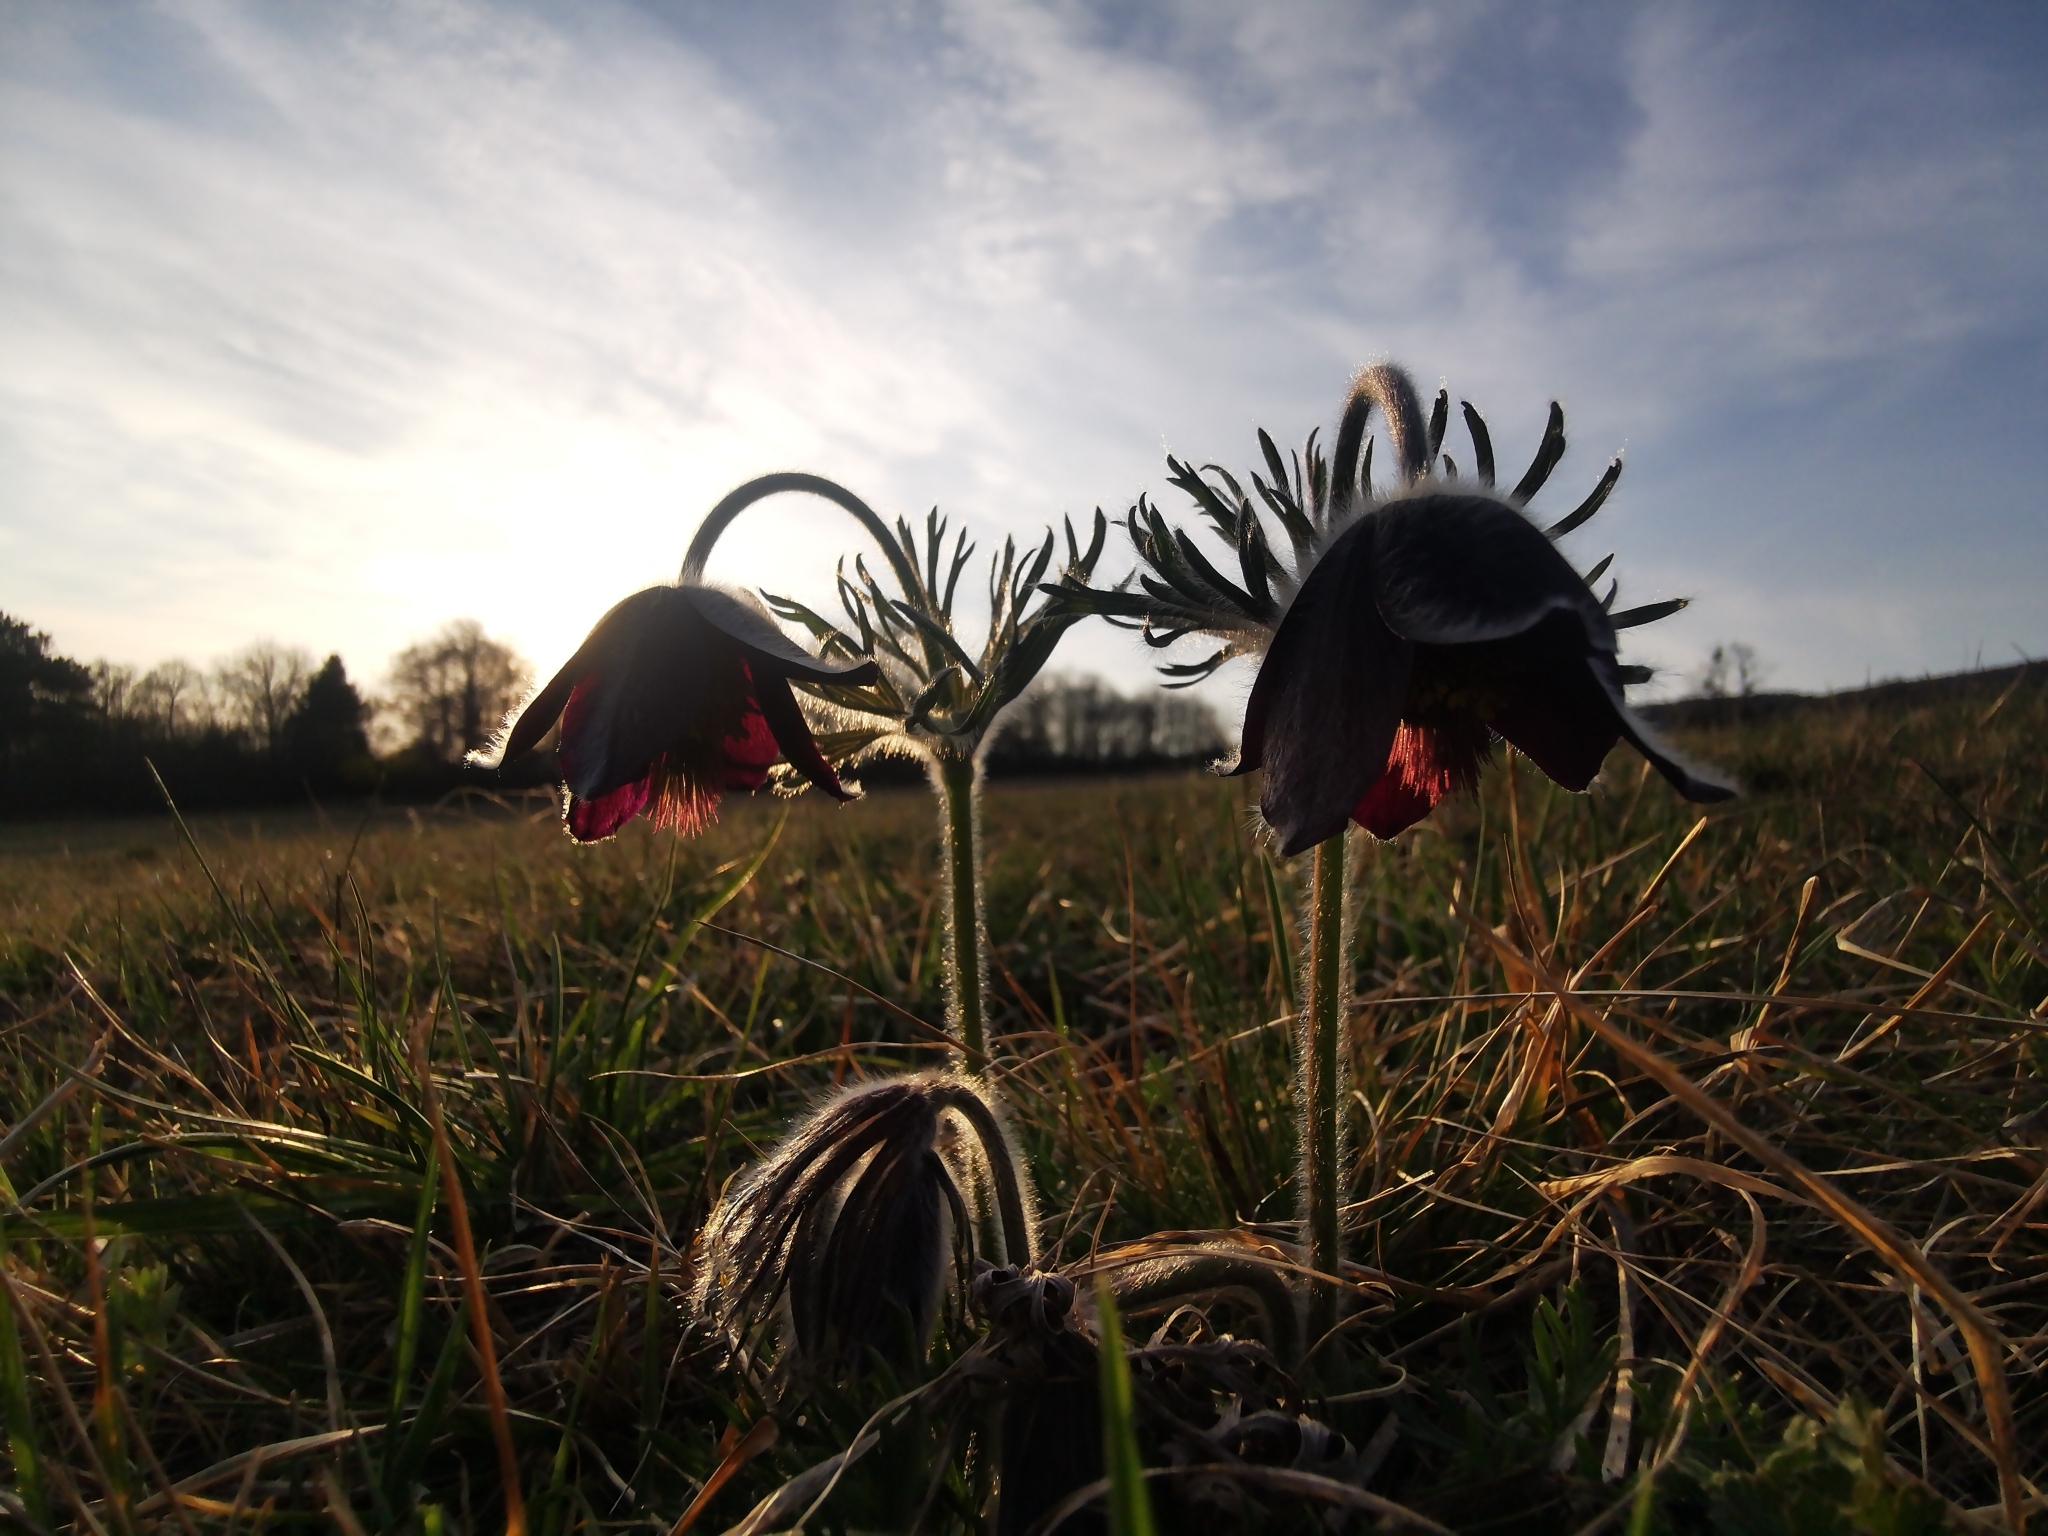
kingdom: Plantae
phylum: Tracheophyta
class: Magnoliopsida
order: Ranunculales
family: Ranunculaceae
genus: Pulsatilla
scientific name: Pulsatilla pratensis
